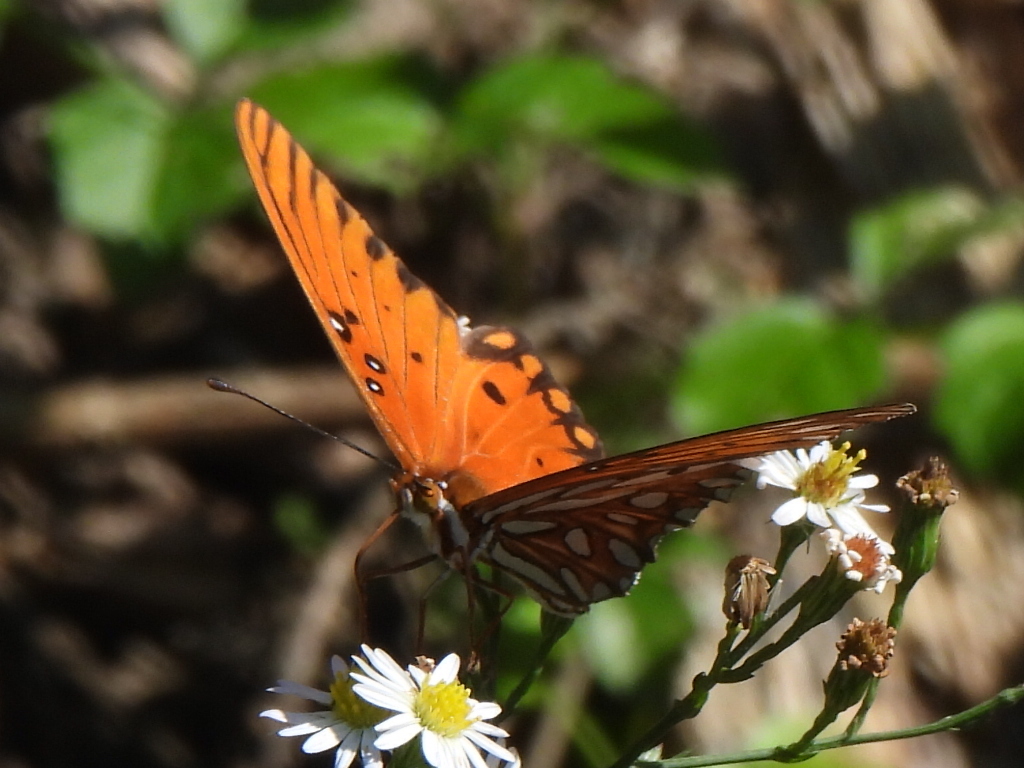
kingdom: Animalia
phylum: Arthropoda
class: Insecta
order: Lepidoptera
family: Nymphalidae
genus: Dione
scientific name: Dione vanillae
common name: Gulf fritillary
